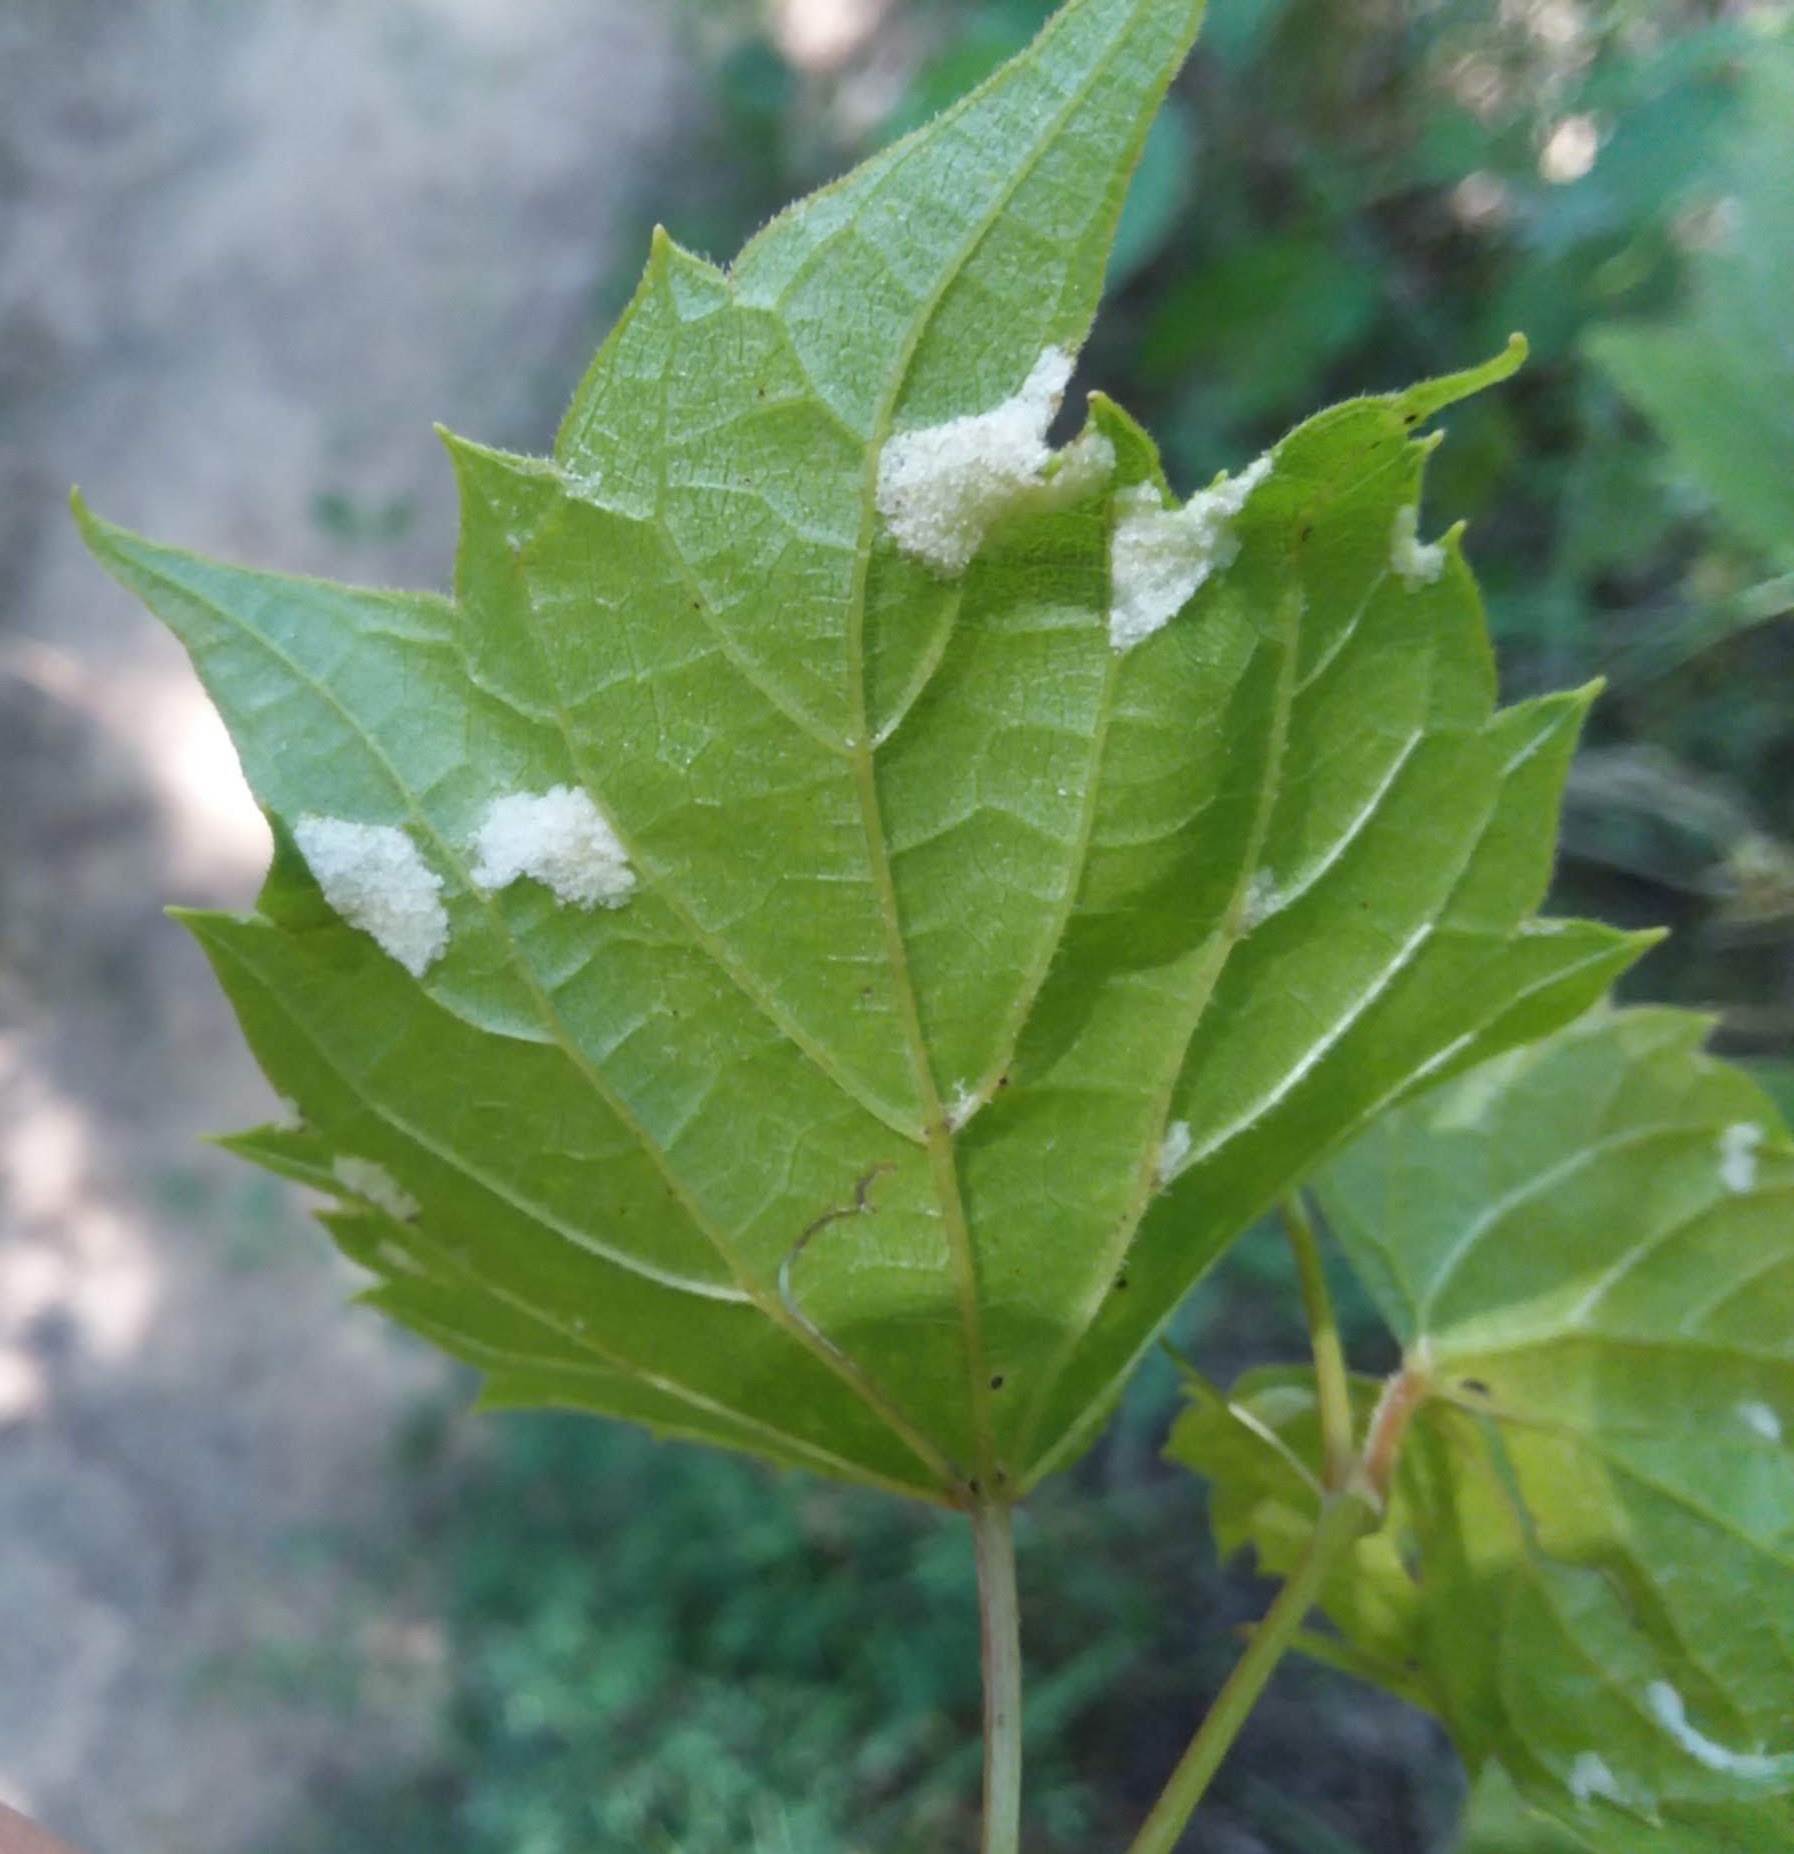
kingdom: Animalia
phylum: Arthropoda
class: Arachnida
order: Trombidiformes
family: Eriophyidae
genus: Colomerus
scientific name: Colomerus vitis
